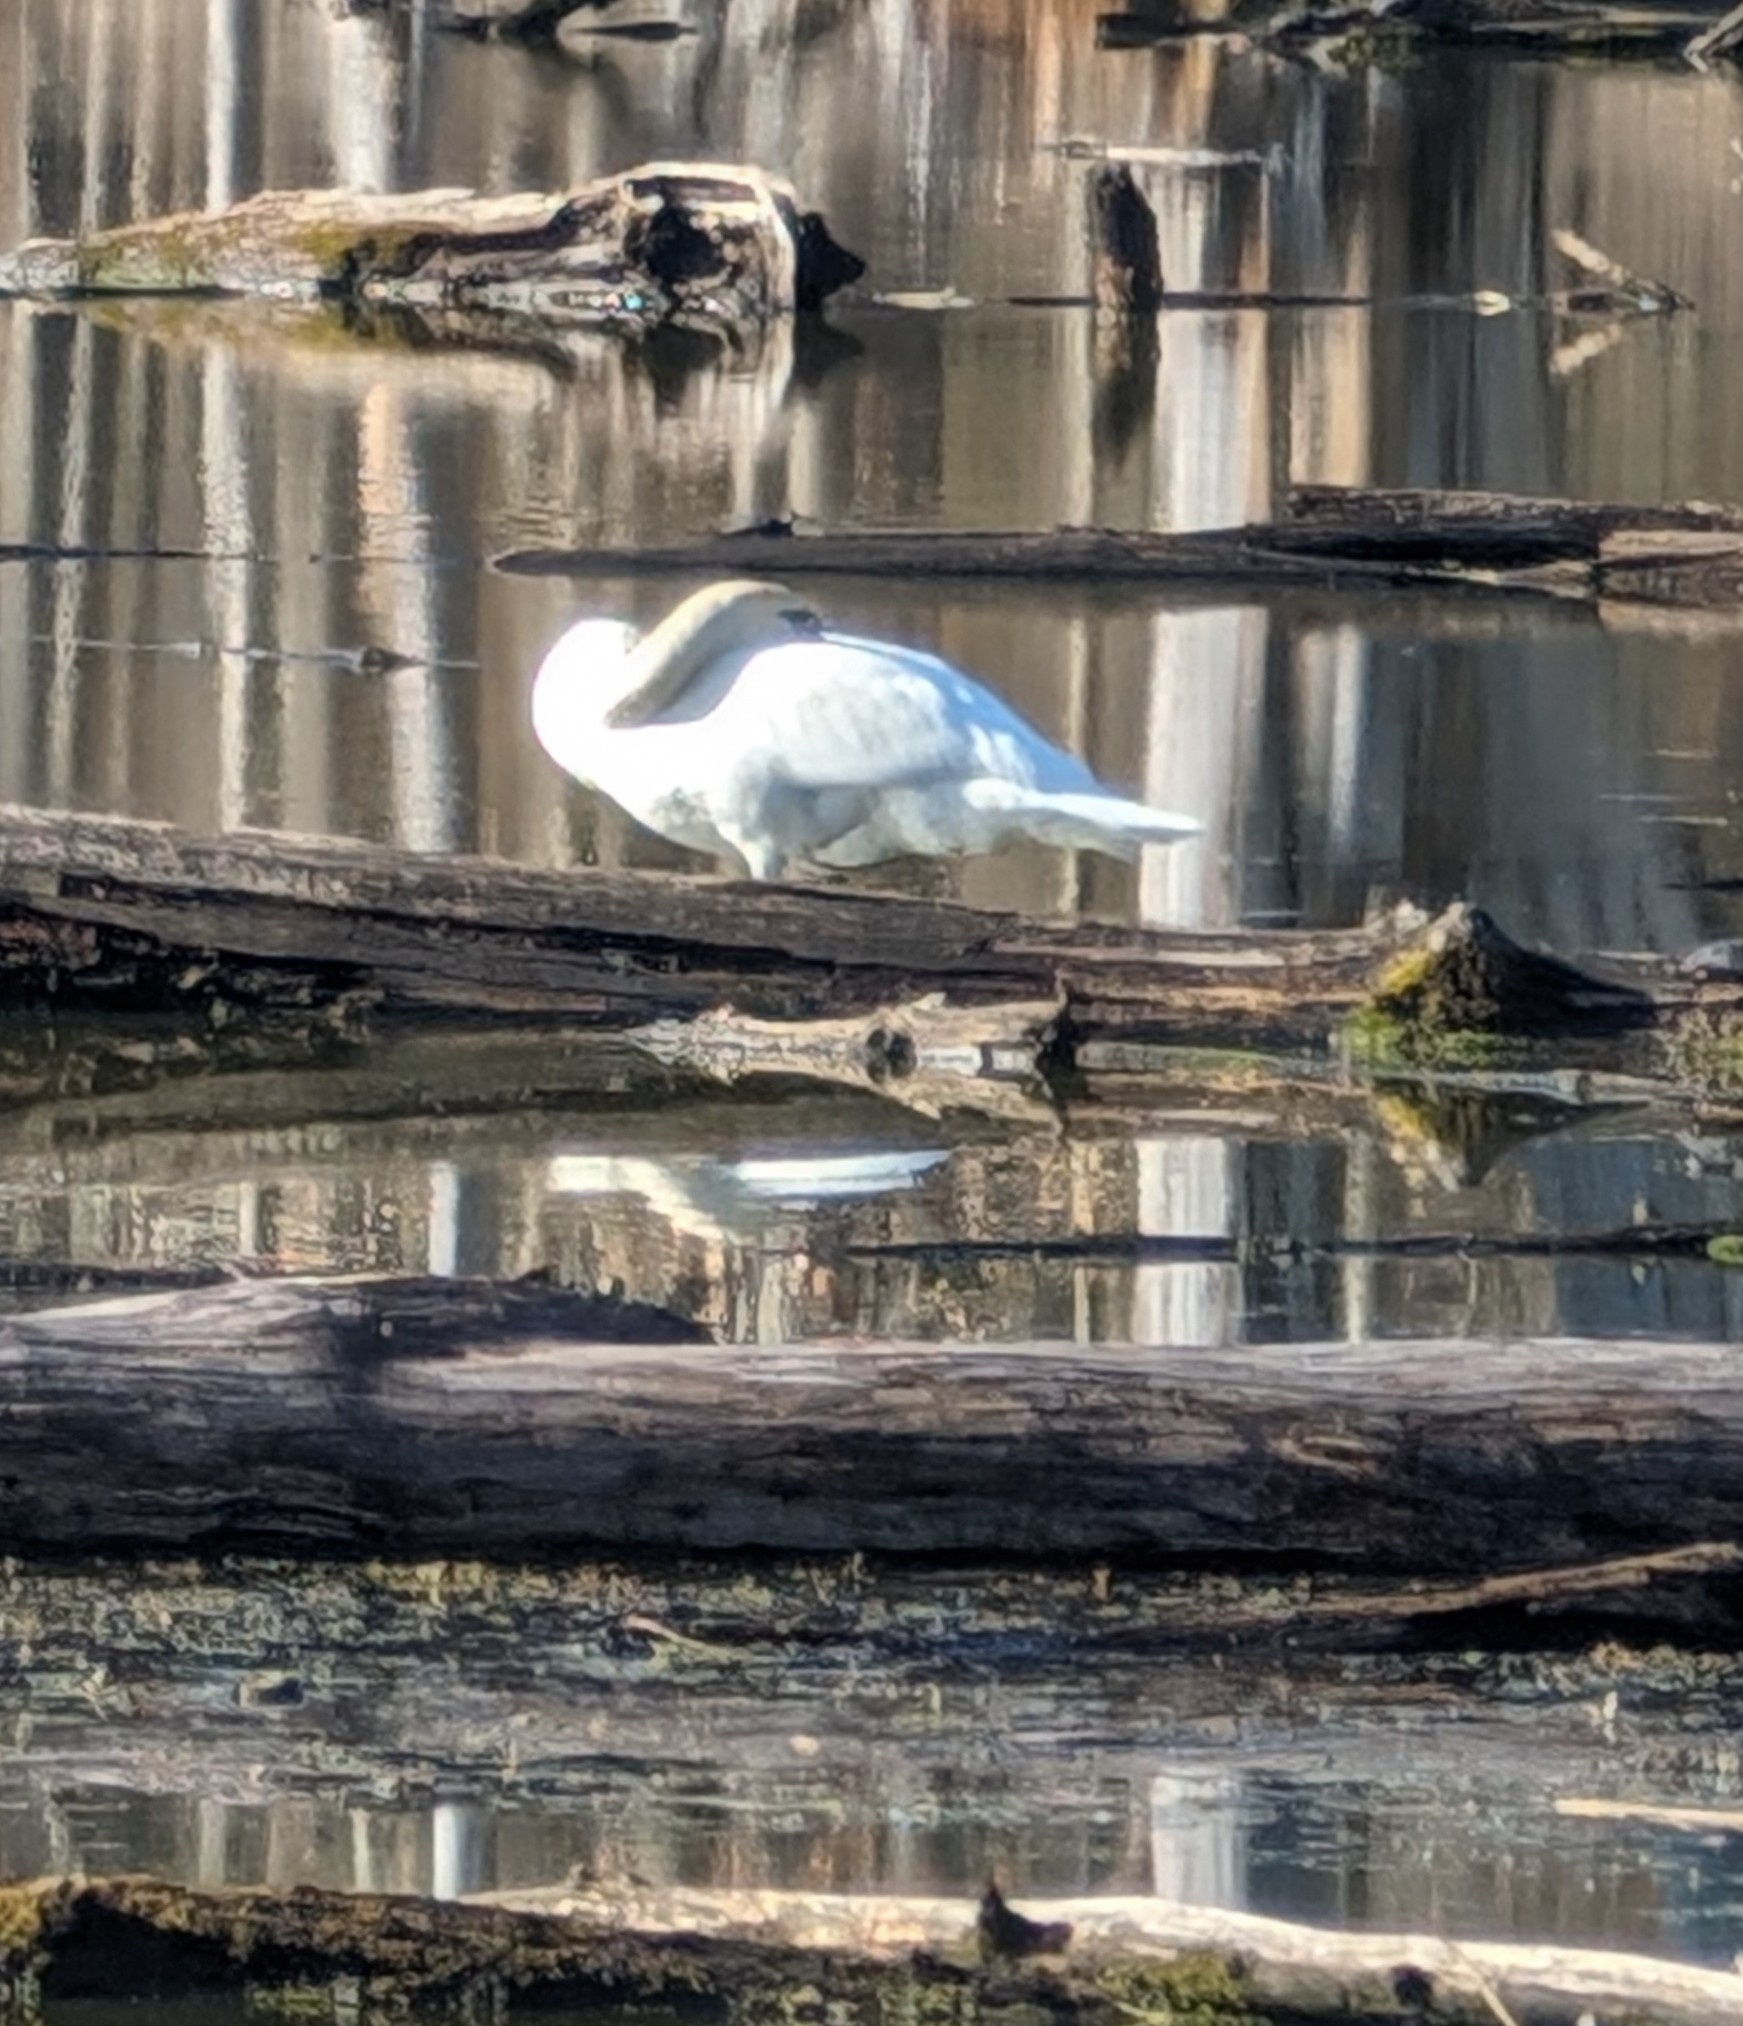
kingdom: Animalia
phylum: Chordata
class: Aves
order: Anseriformes
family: Anatidae
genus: Cygnus
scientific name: Cygnus olor
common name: Mute swan
